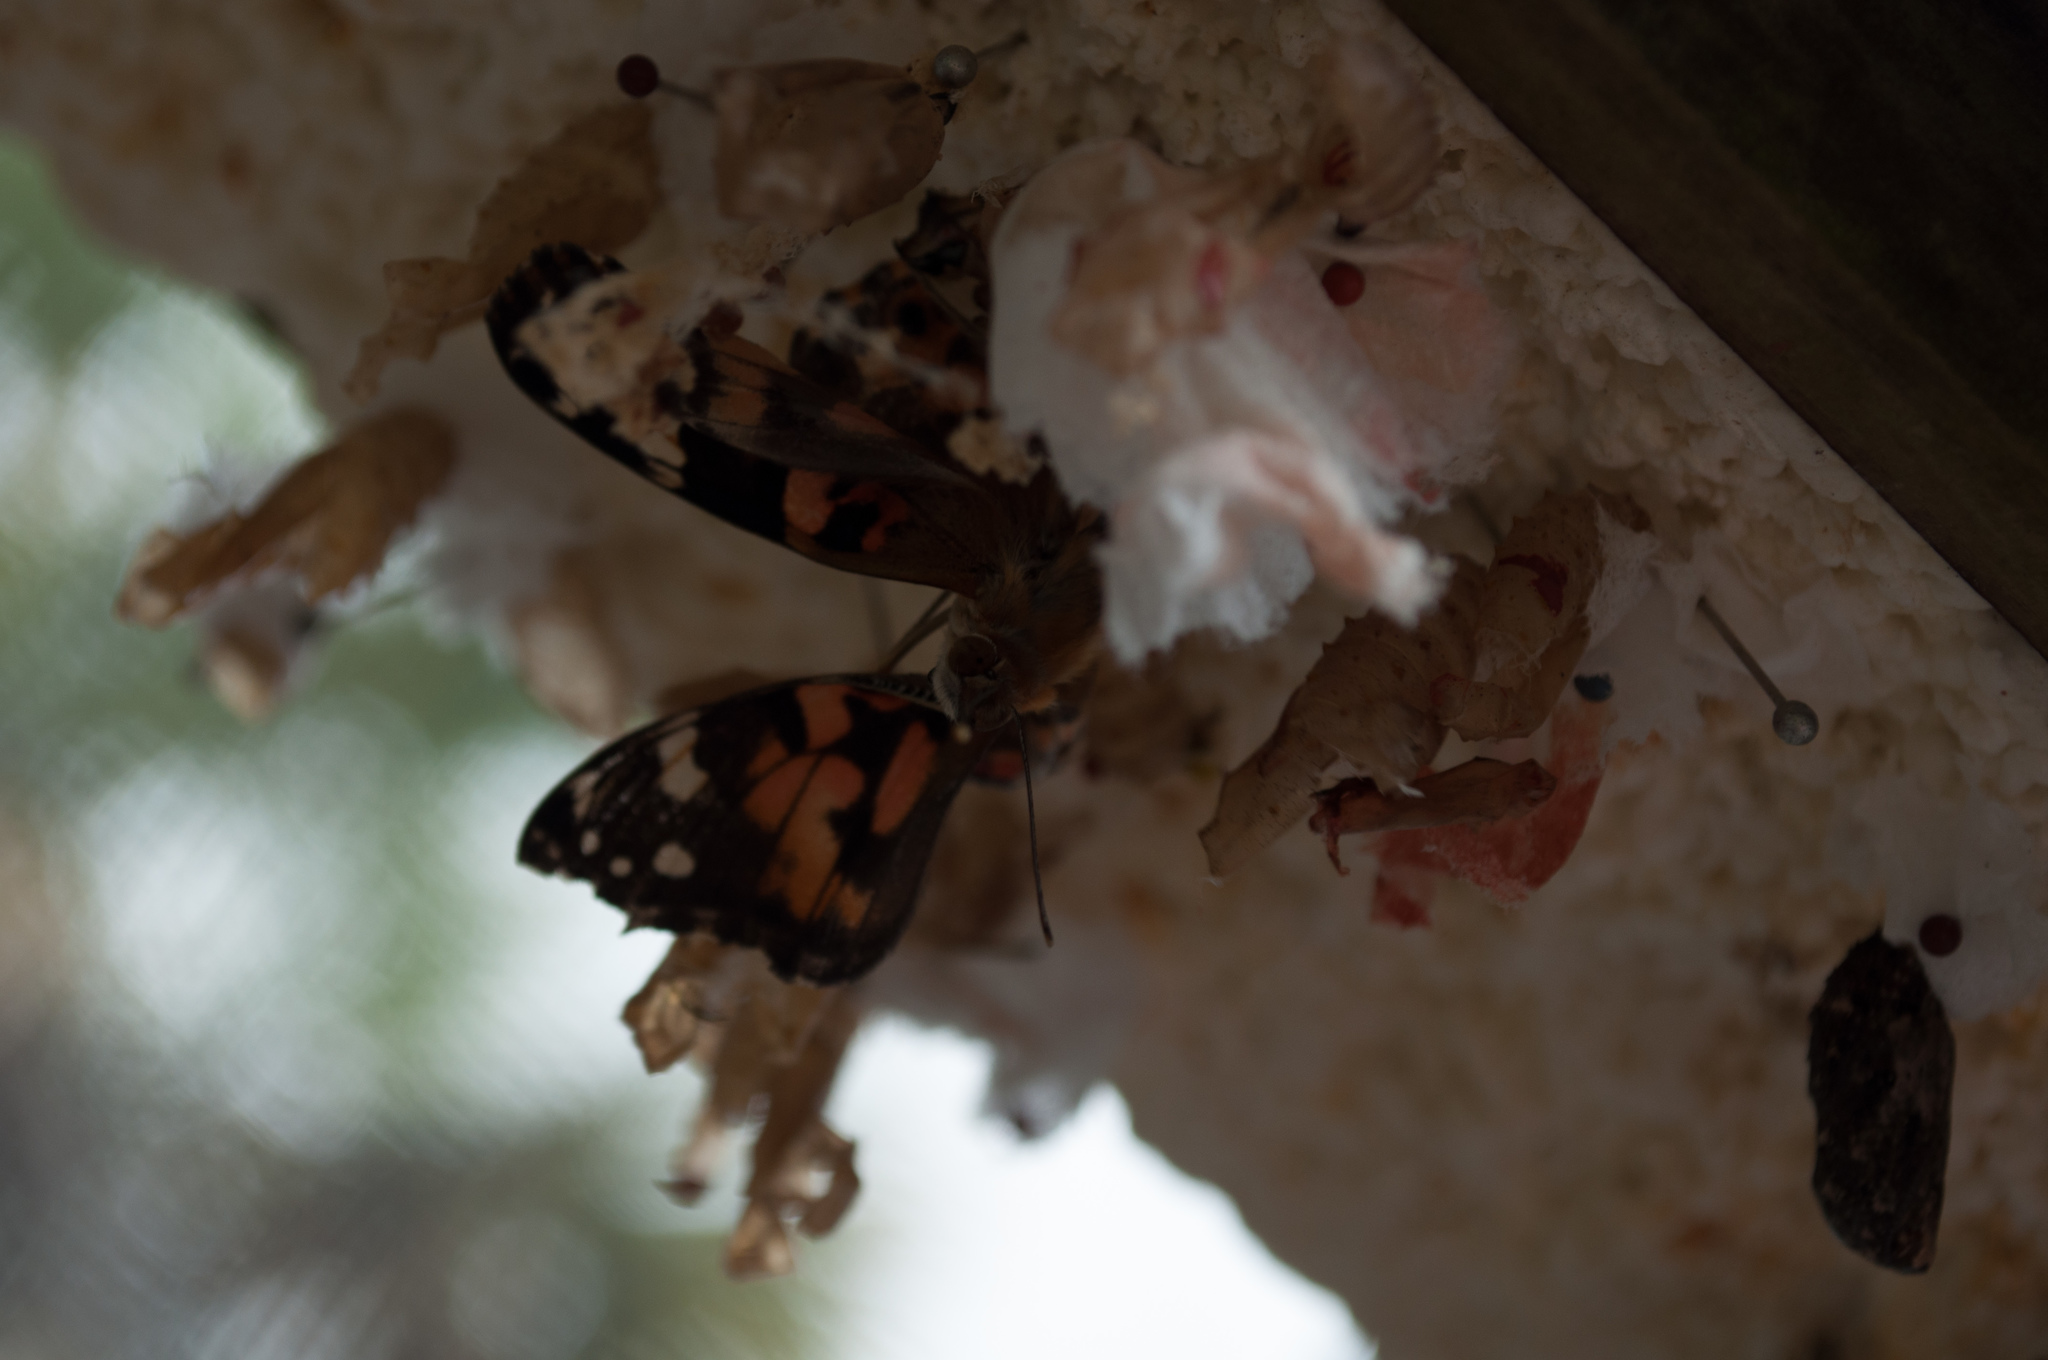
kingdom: Animalia
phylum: Arthropoda
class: Insecta
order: Lepidoptera
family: Nymphalidae
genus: Vanessa
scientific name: Vanessa cardui
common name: Painted lady
